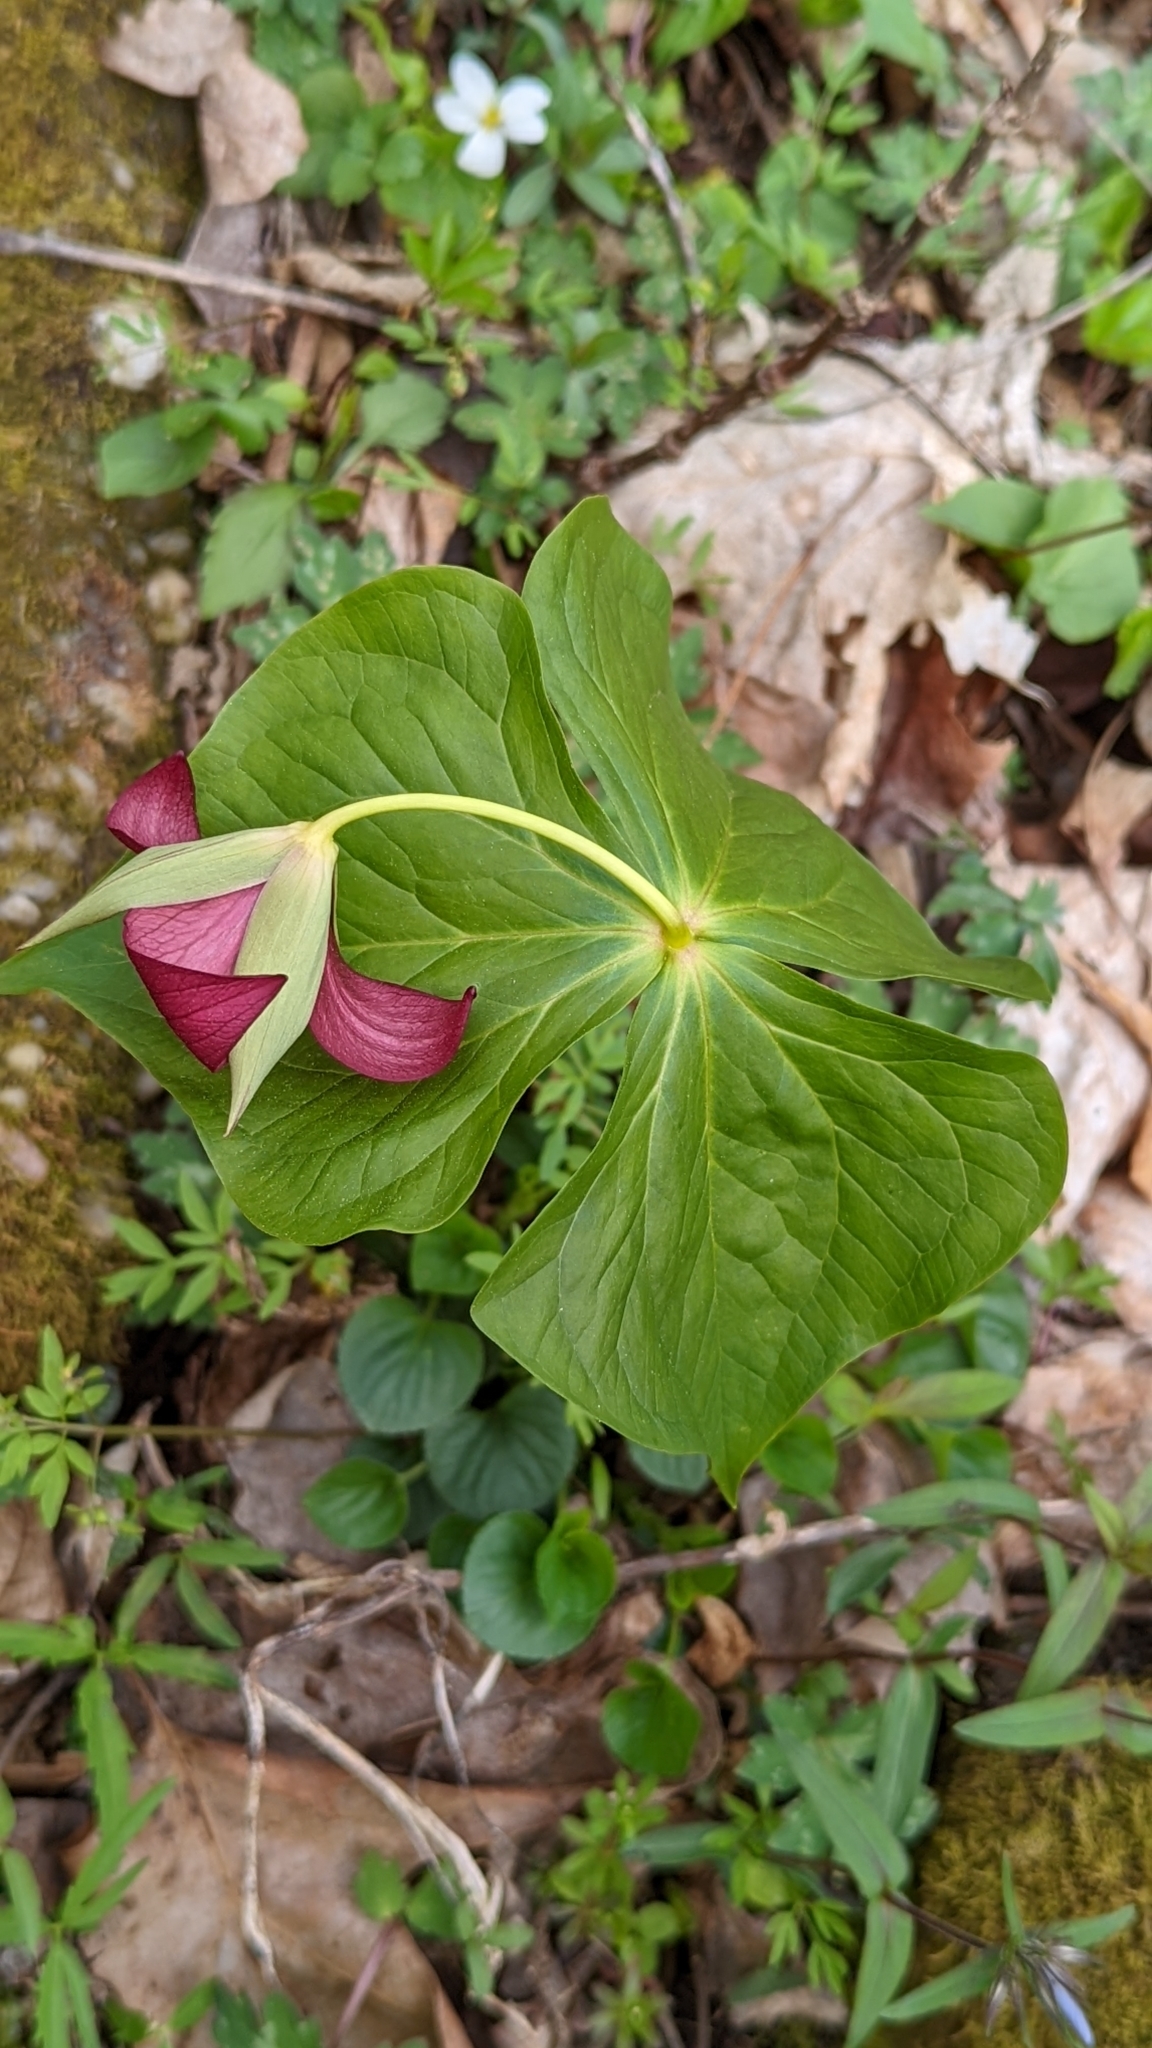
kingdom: Plantae
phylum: Tracheophyta
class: Liliopsida
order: Liliales
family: Melanthiaceae
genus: Trillium
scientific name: Trillium erectum
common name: Purple trillium
